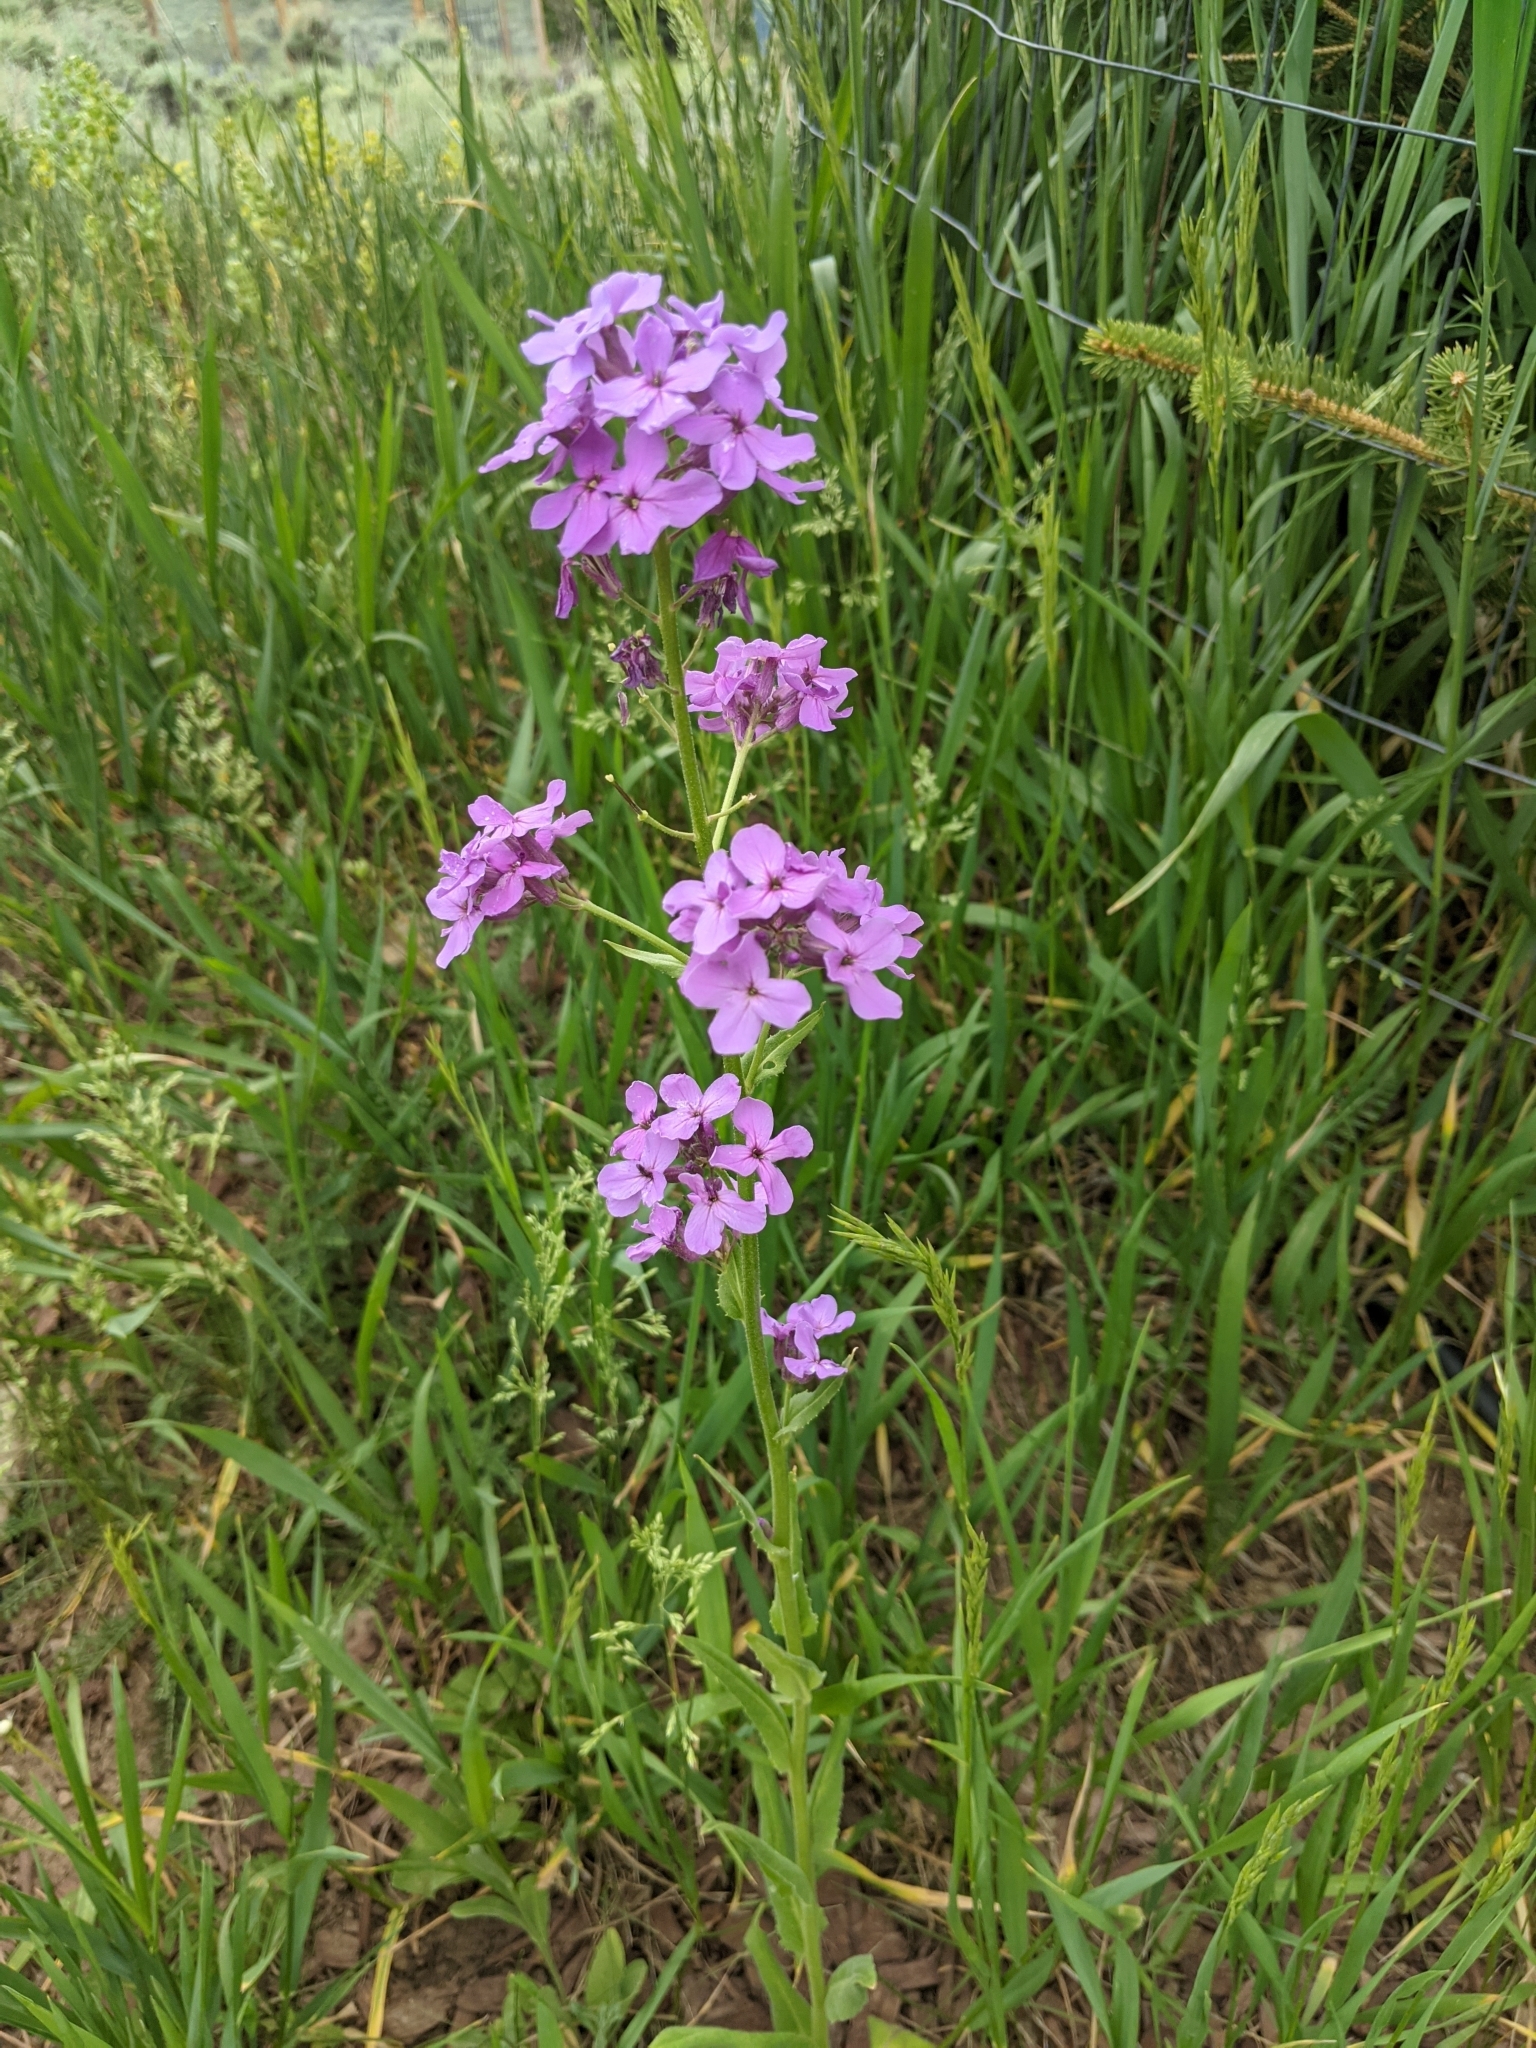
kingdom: Plantae
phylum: Tracheophyta
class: Magnoliopsida
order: Brassicales
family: Brassicaceae
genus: Hesperis
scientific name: Hesperis matronalis
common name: Dame's-violet
